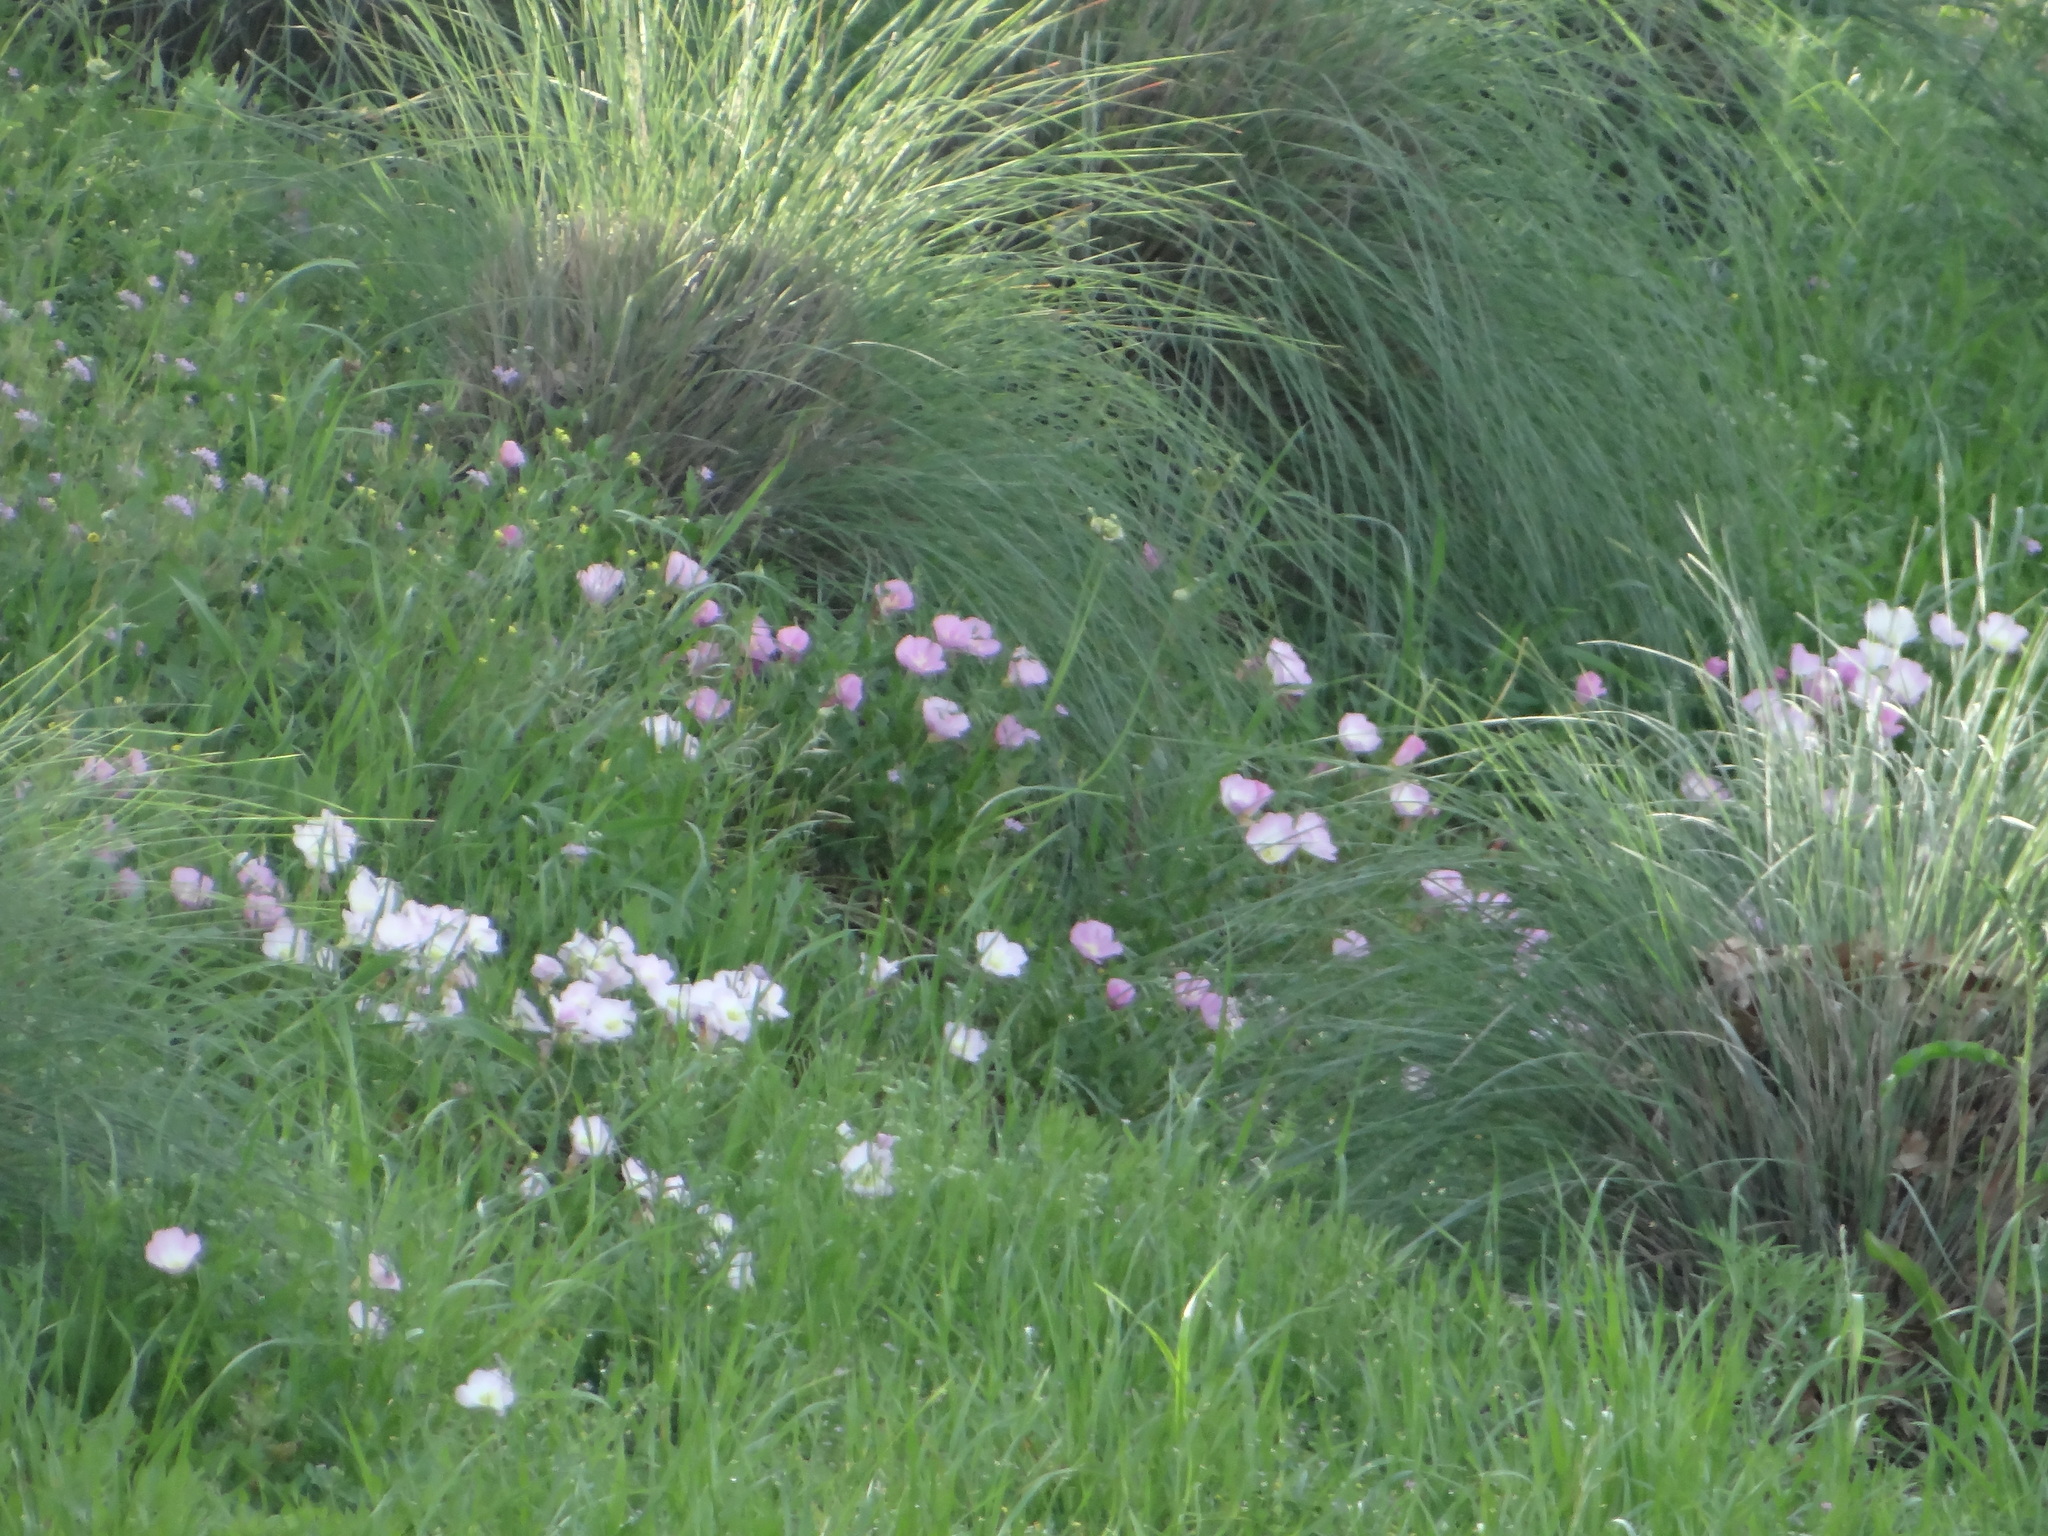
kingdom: Plantae
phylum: Tracheophyta
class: Magnoliopsida
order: Myrtales
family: Onagraceae
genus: Oenothera
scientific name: Oenothera speciosa
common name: White evening-primrose
